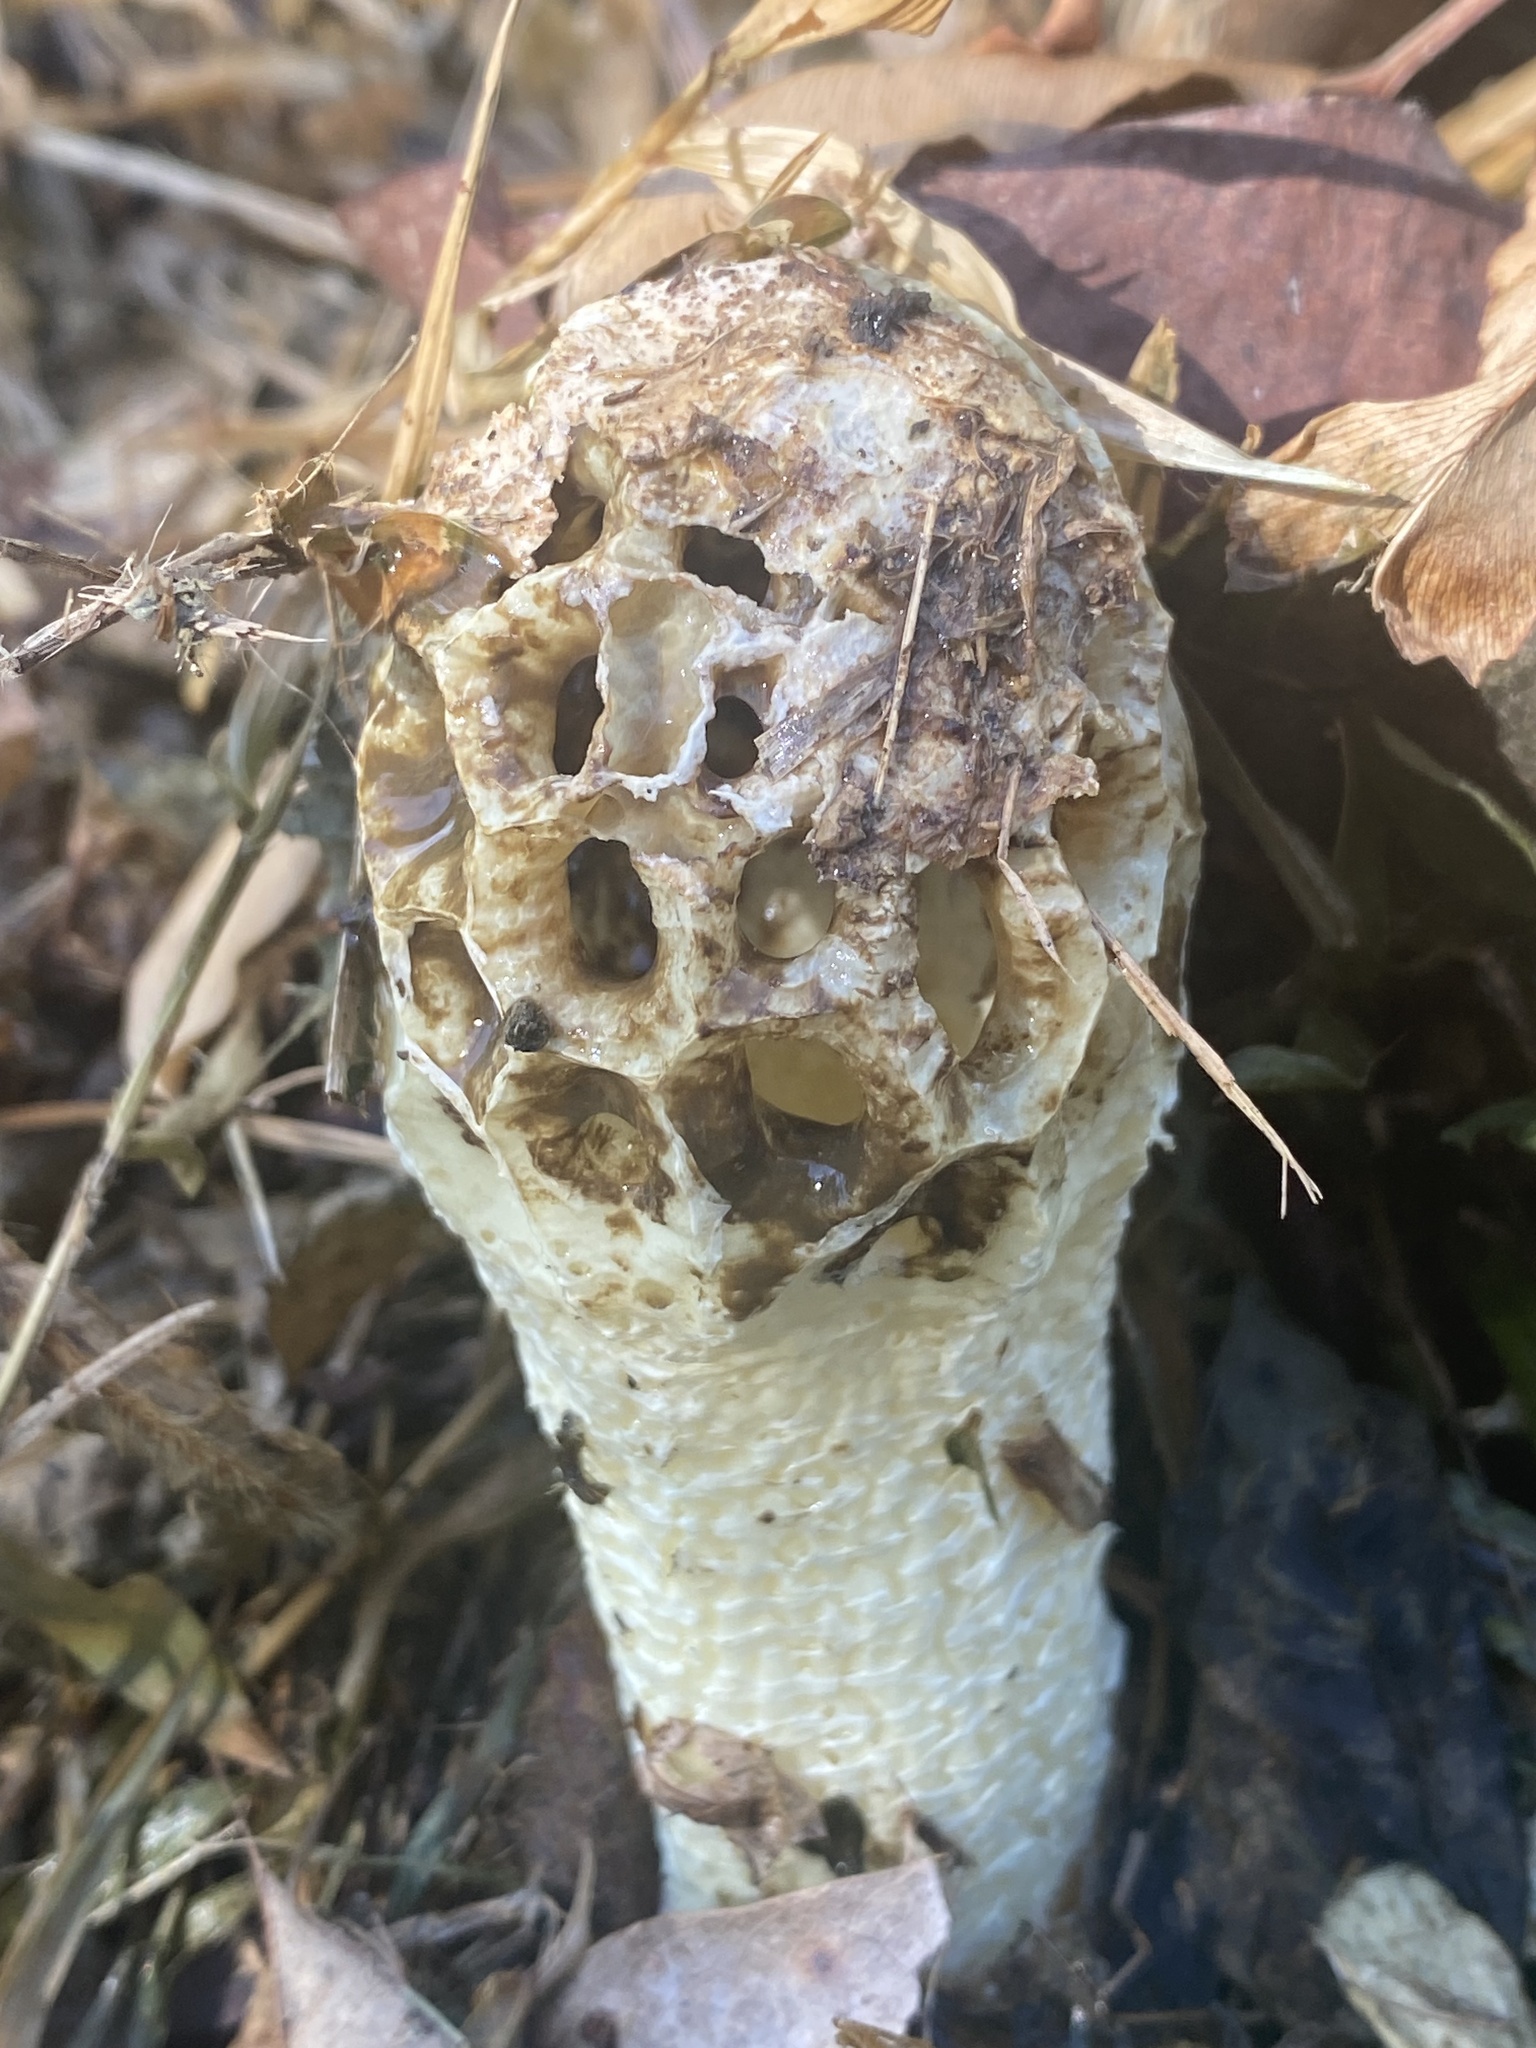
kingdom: Fungi
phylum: Basidiomycota
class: Agaricomycetes
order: Phallales
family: Phallaceae
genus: Lysurus
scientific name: Lysurus periphragmoides
